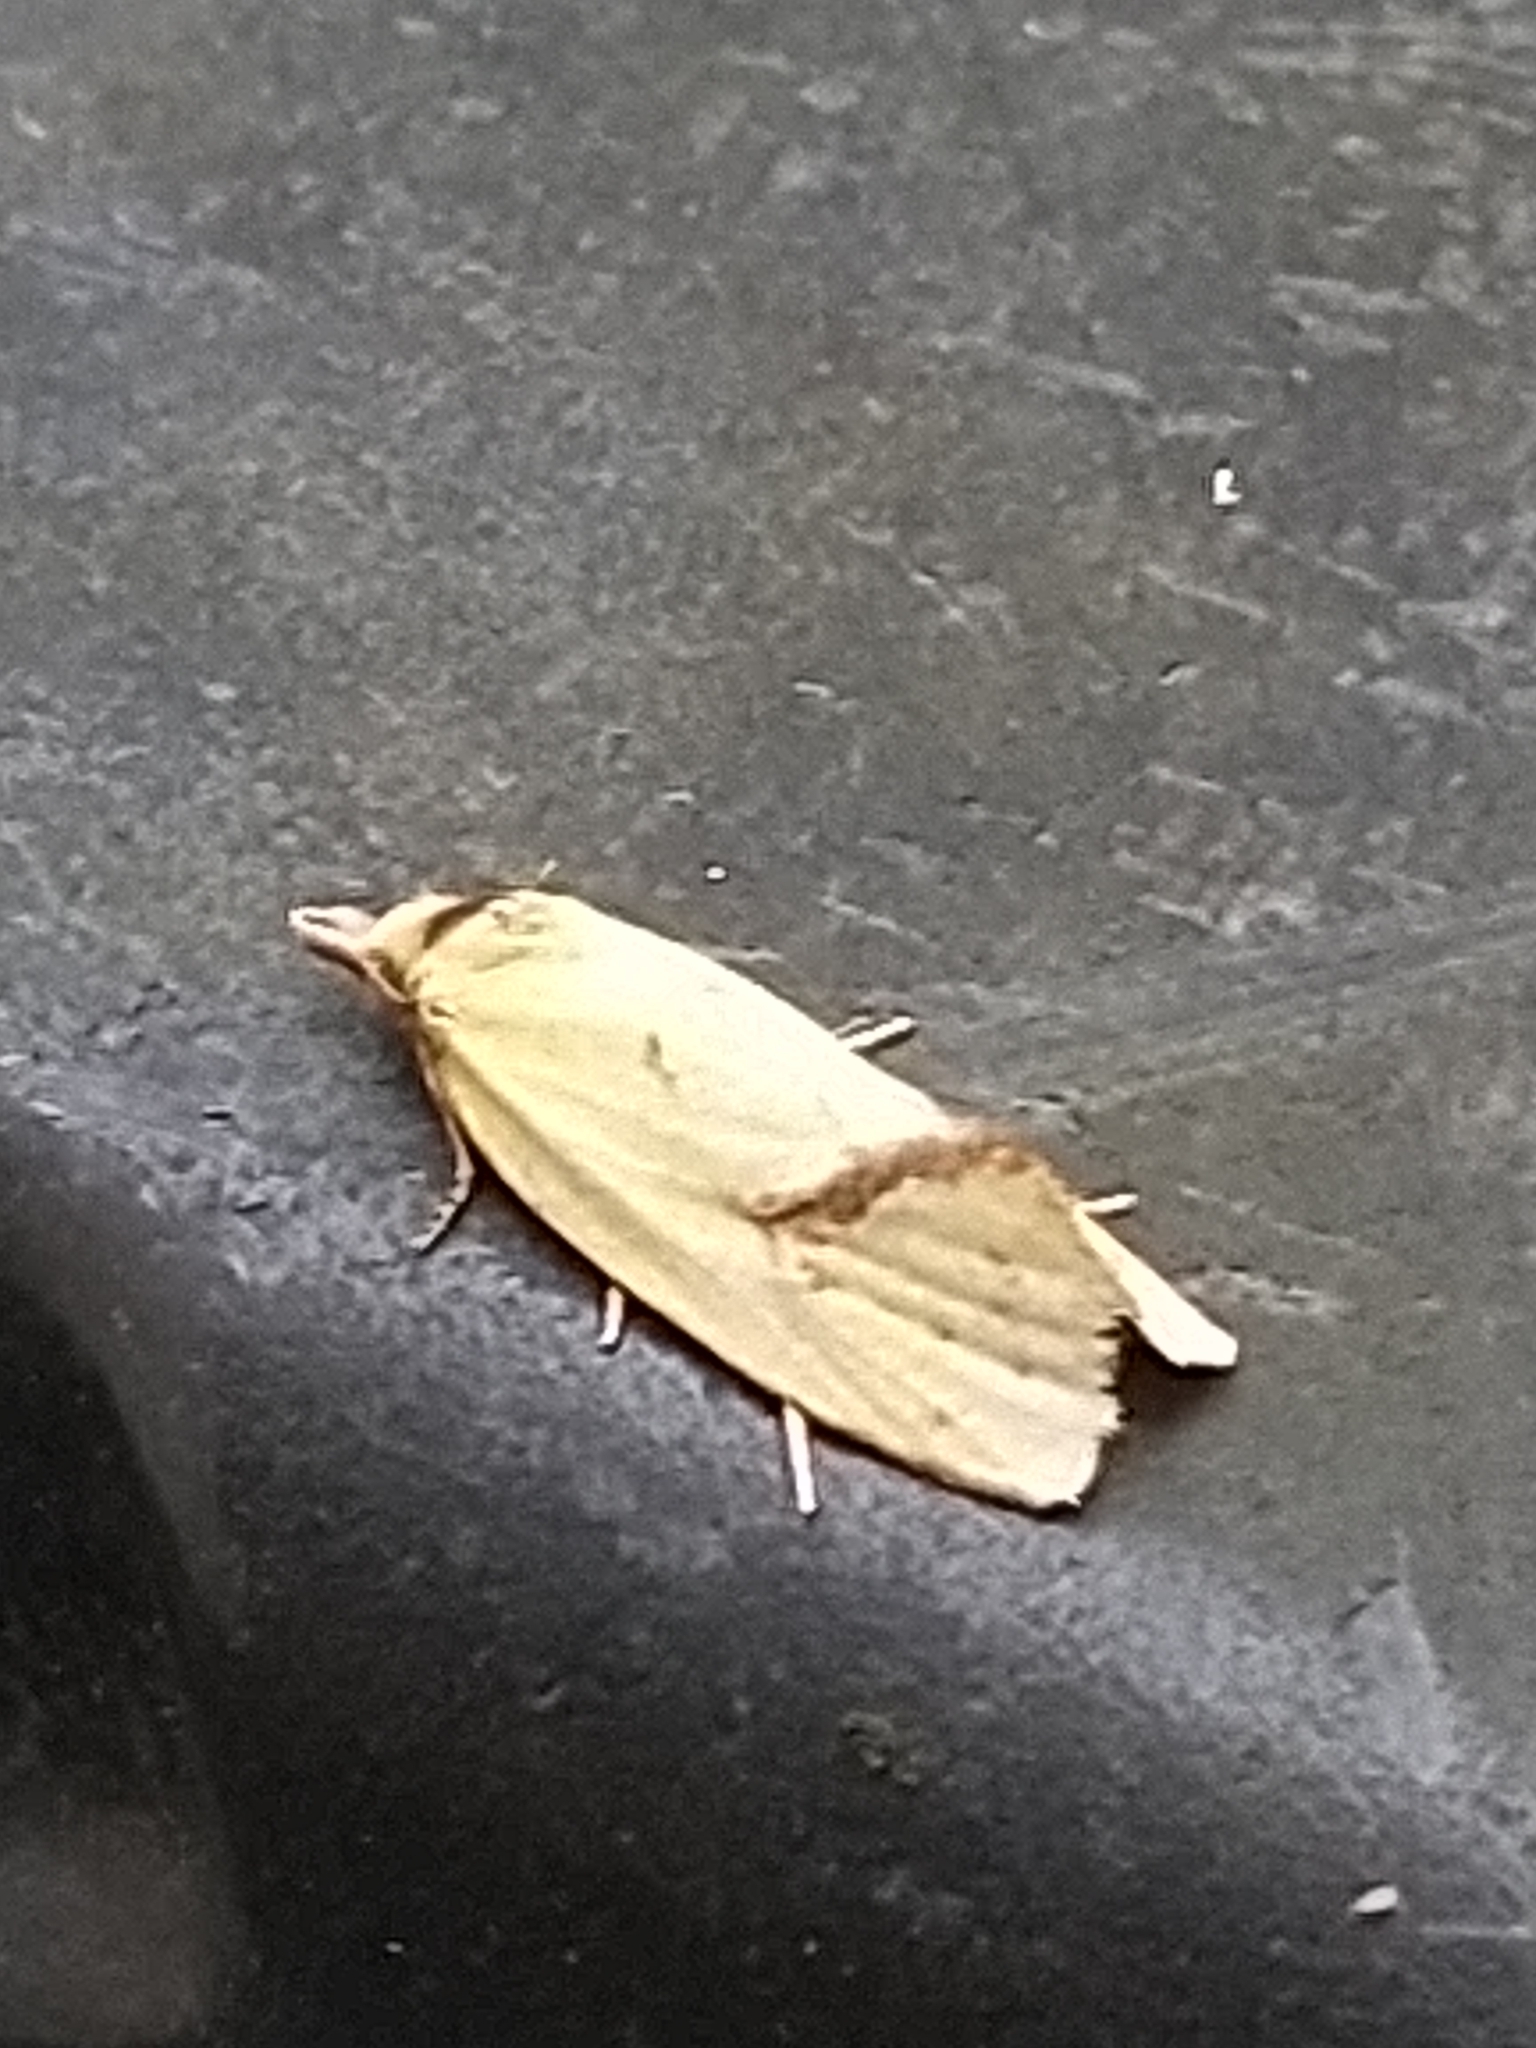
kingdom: Animalia
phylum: Arthropoda
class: Insecta
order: Lepidoptera
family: Tortricidae
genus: Agapeta
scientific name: Agapeta hamana
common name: Common yellow conch
